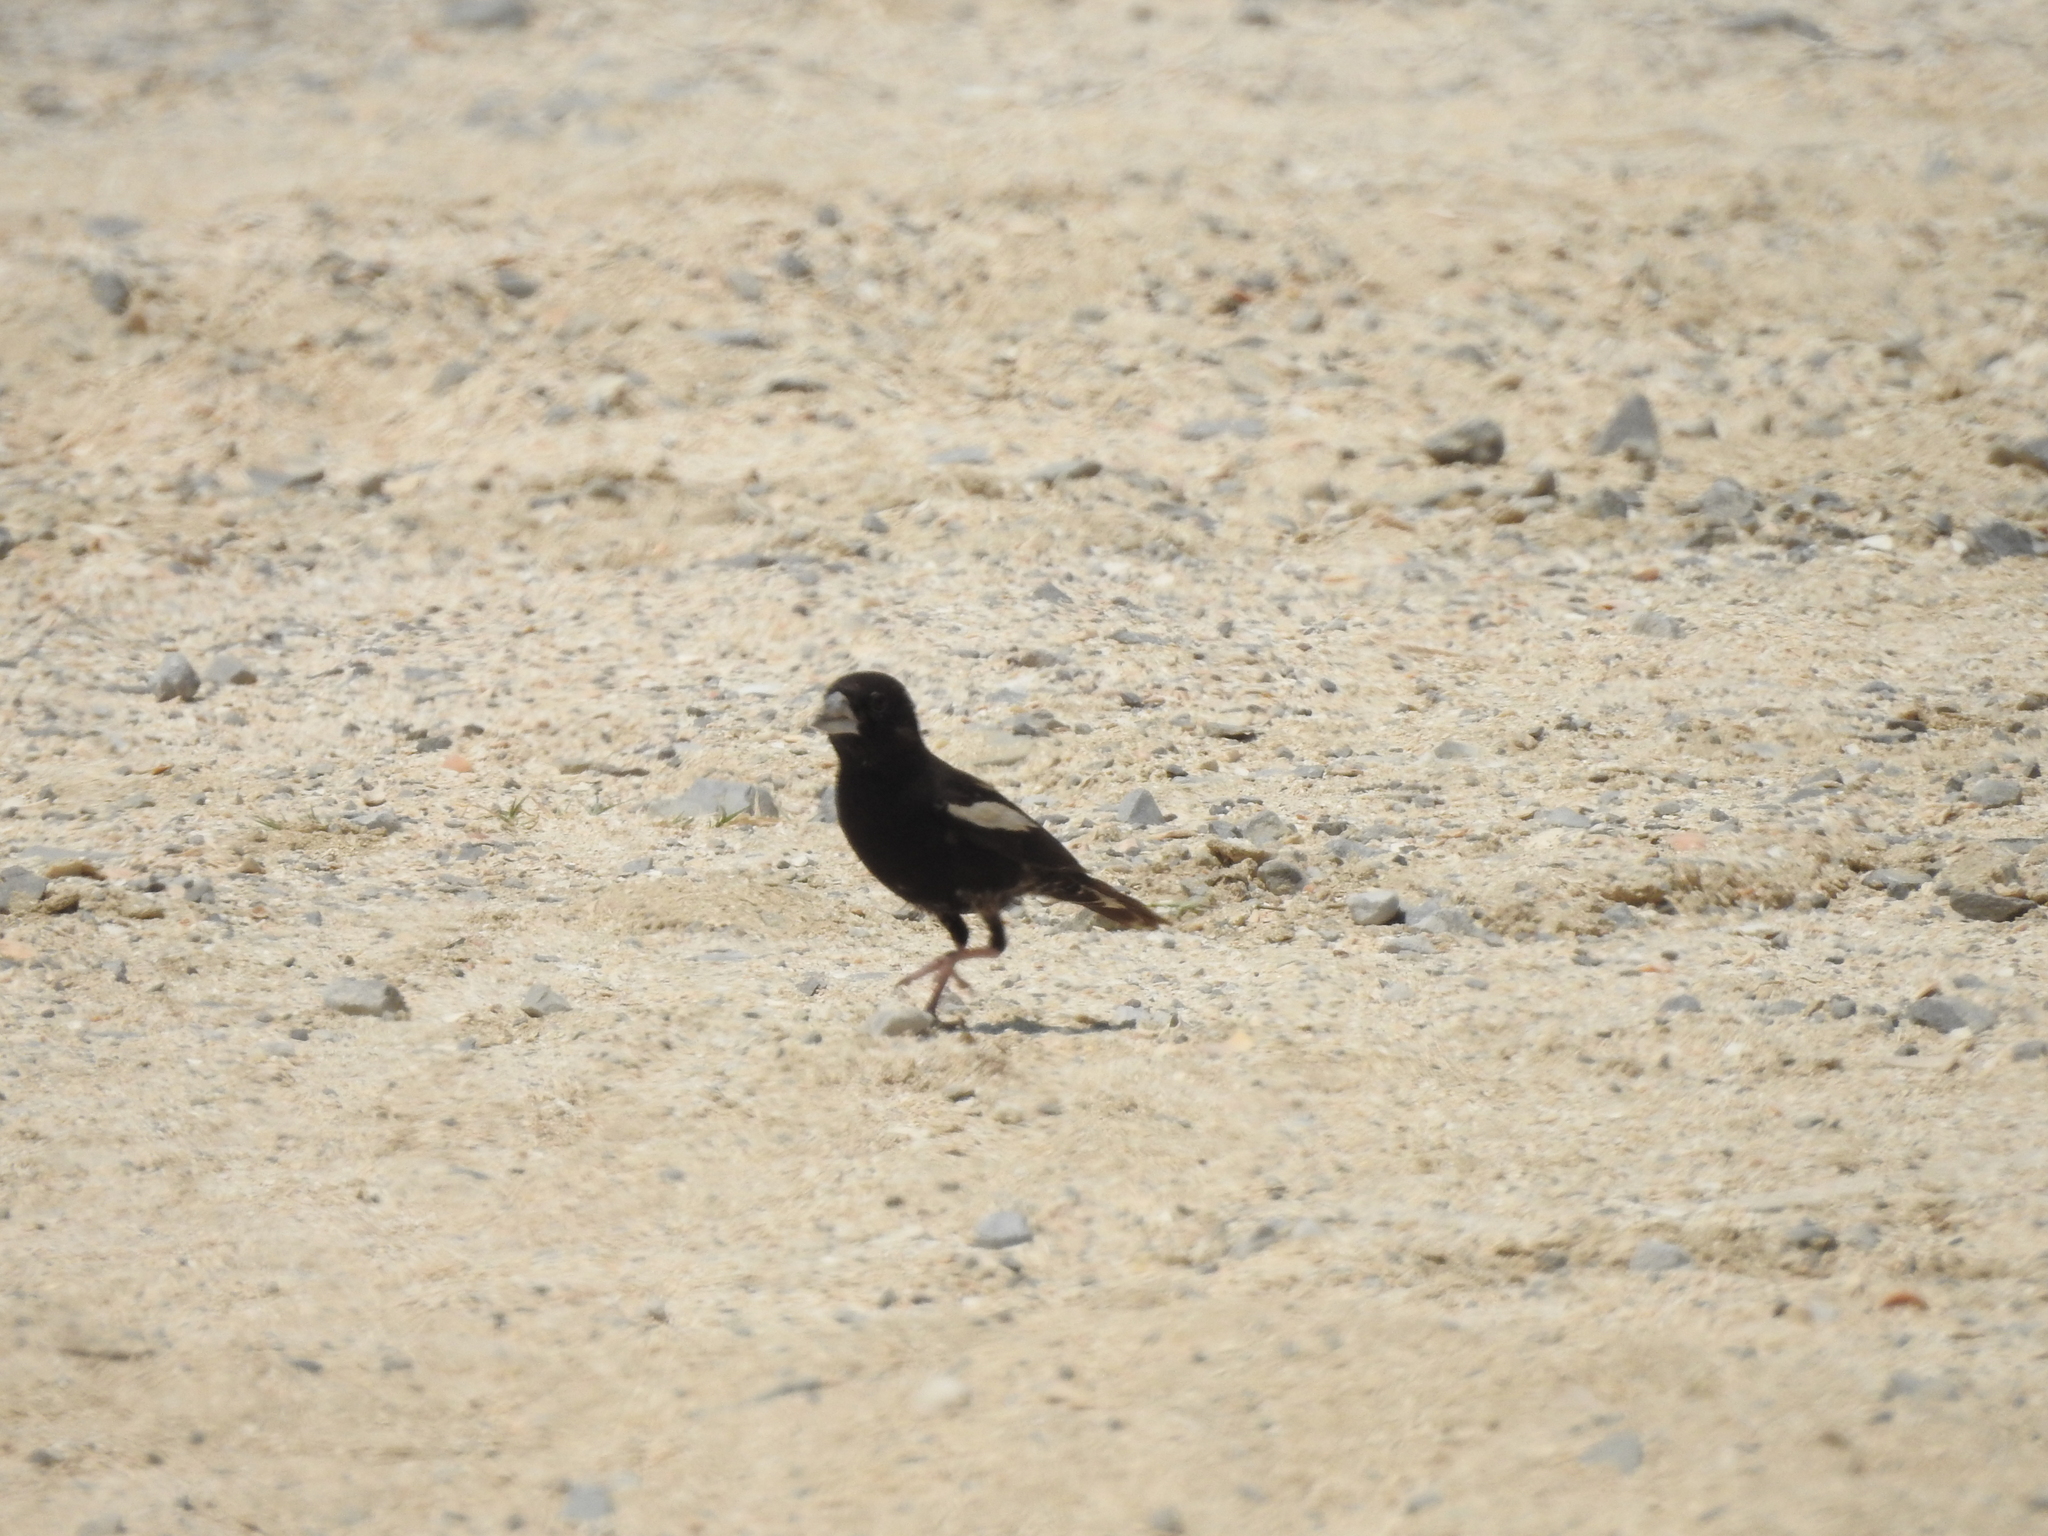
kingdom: Animalia
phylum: Chordata
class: Aves
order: Passeriformes
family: Passerellidae
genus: Calamospiza
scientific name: Calamospiza melanocorys
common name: Lark bunting
